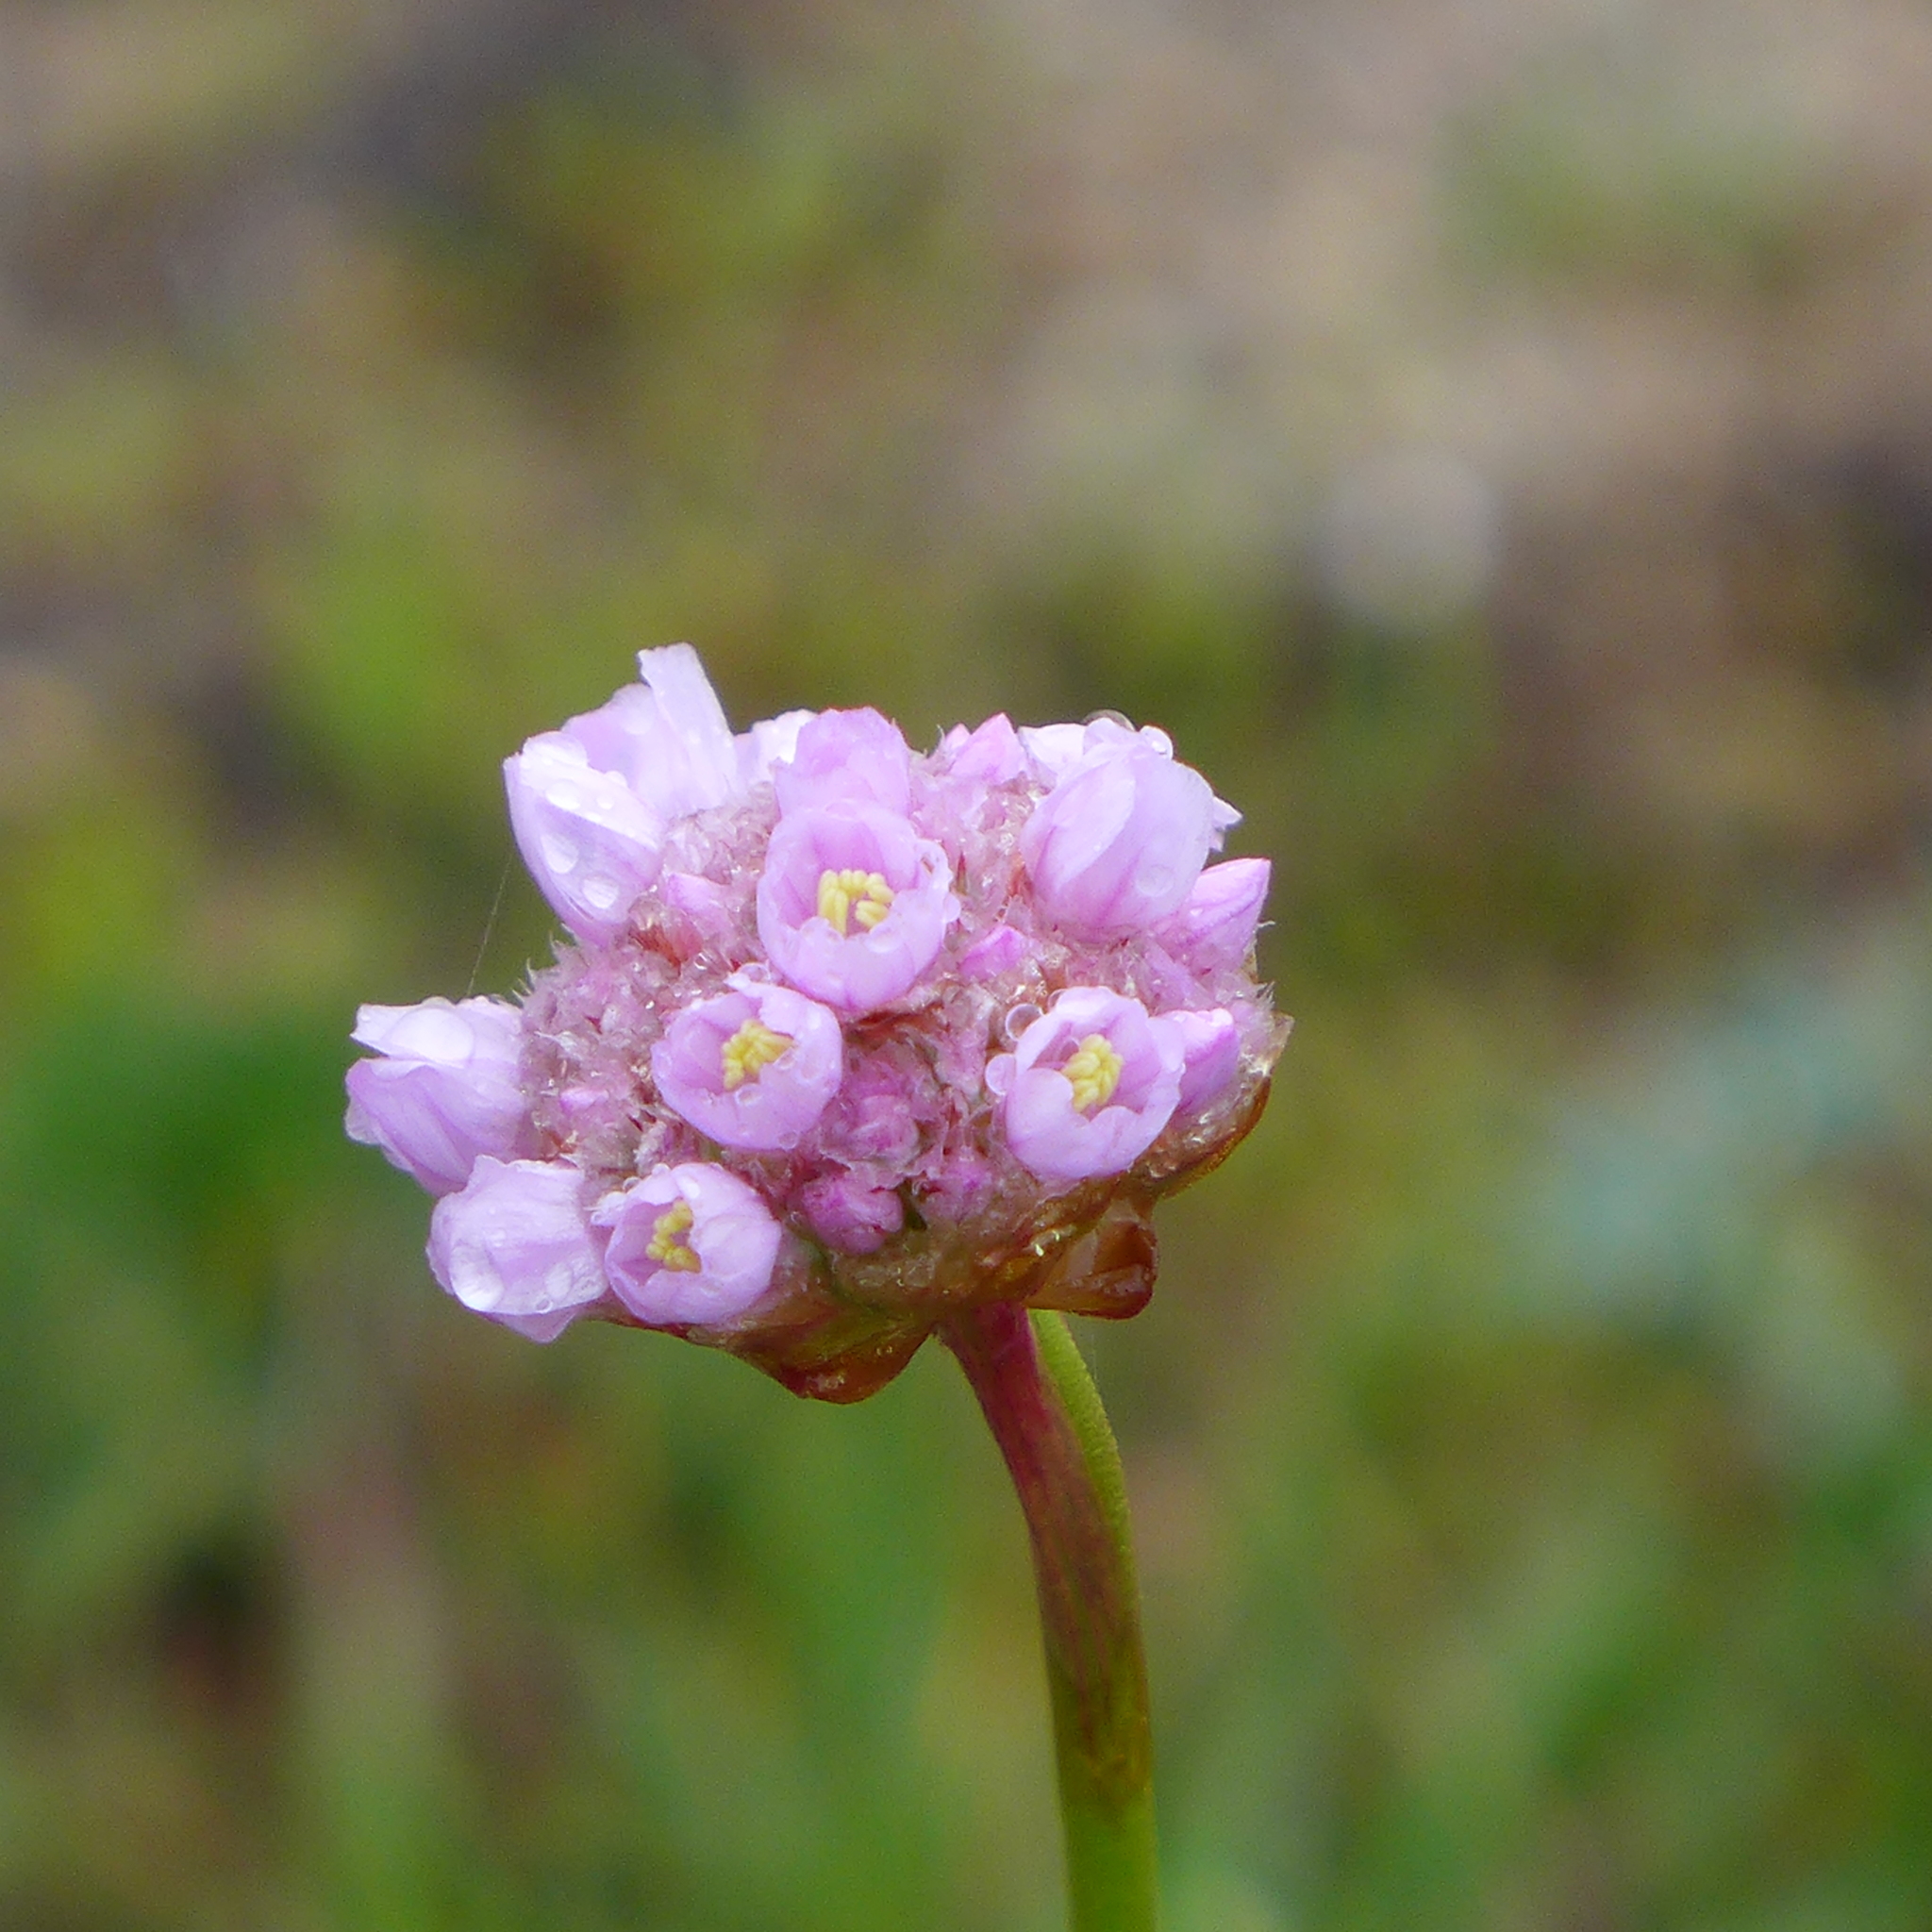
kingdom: Plantae
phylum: Tracheophyta
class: Magnoliopsida
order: Caryophyllales
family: Plumbaginaceae
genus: Armeria
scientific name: Armeria maritima
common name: Thrift
